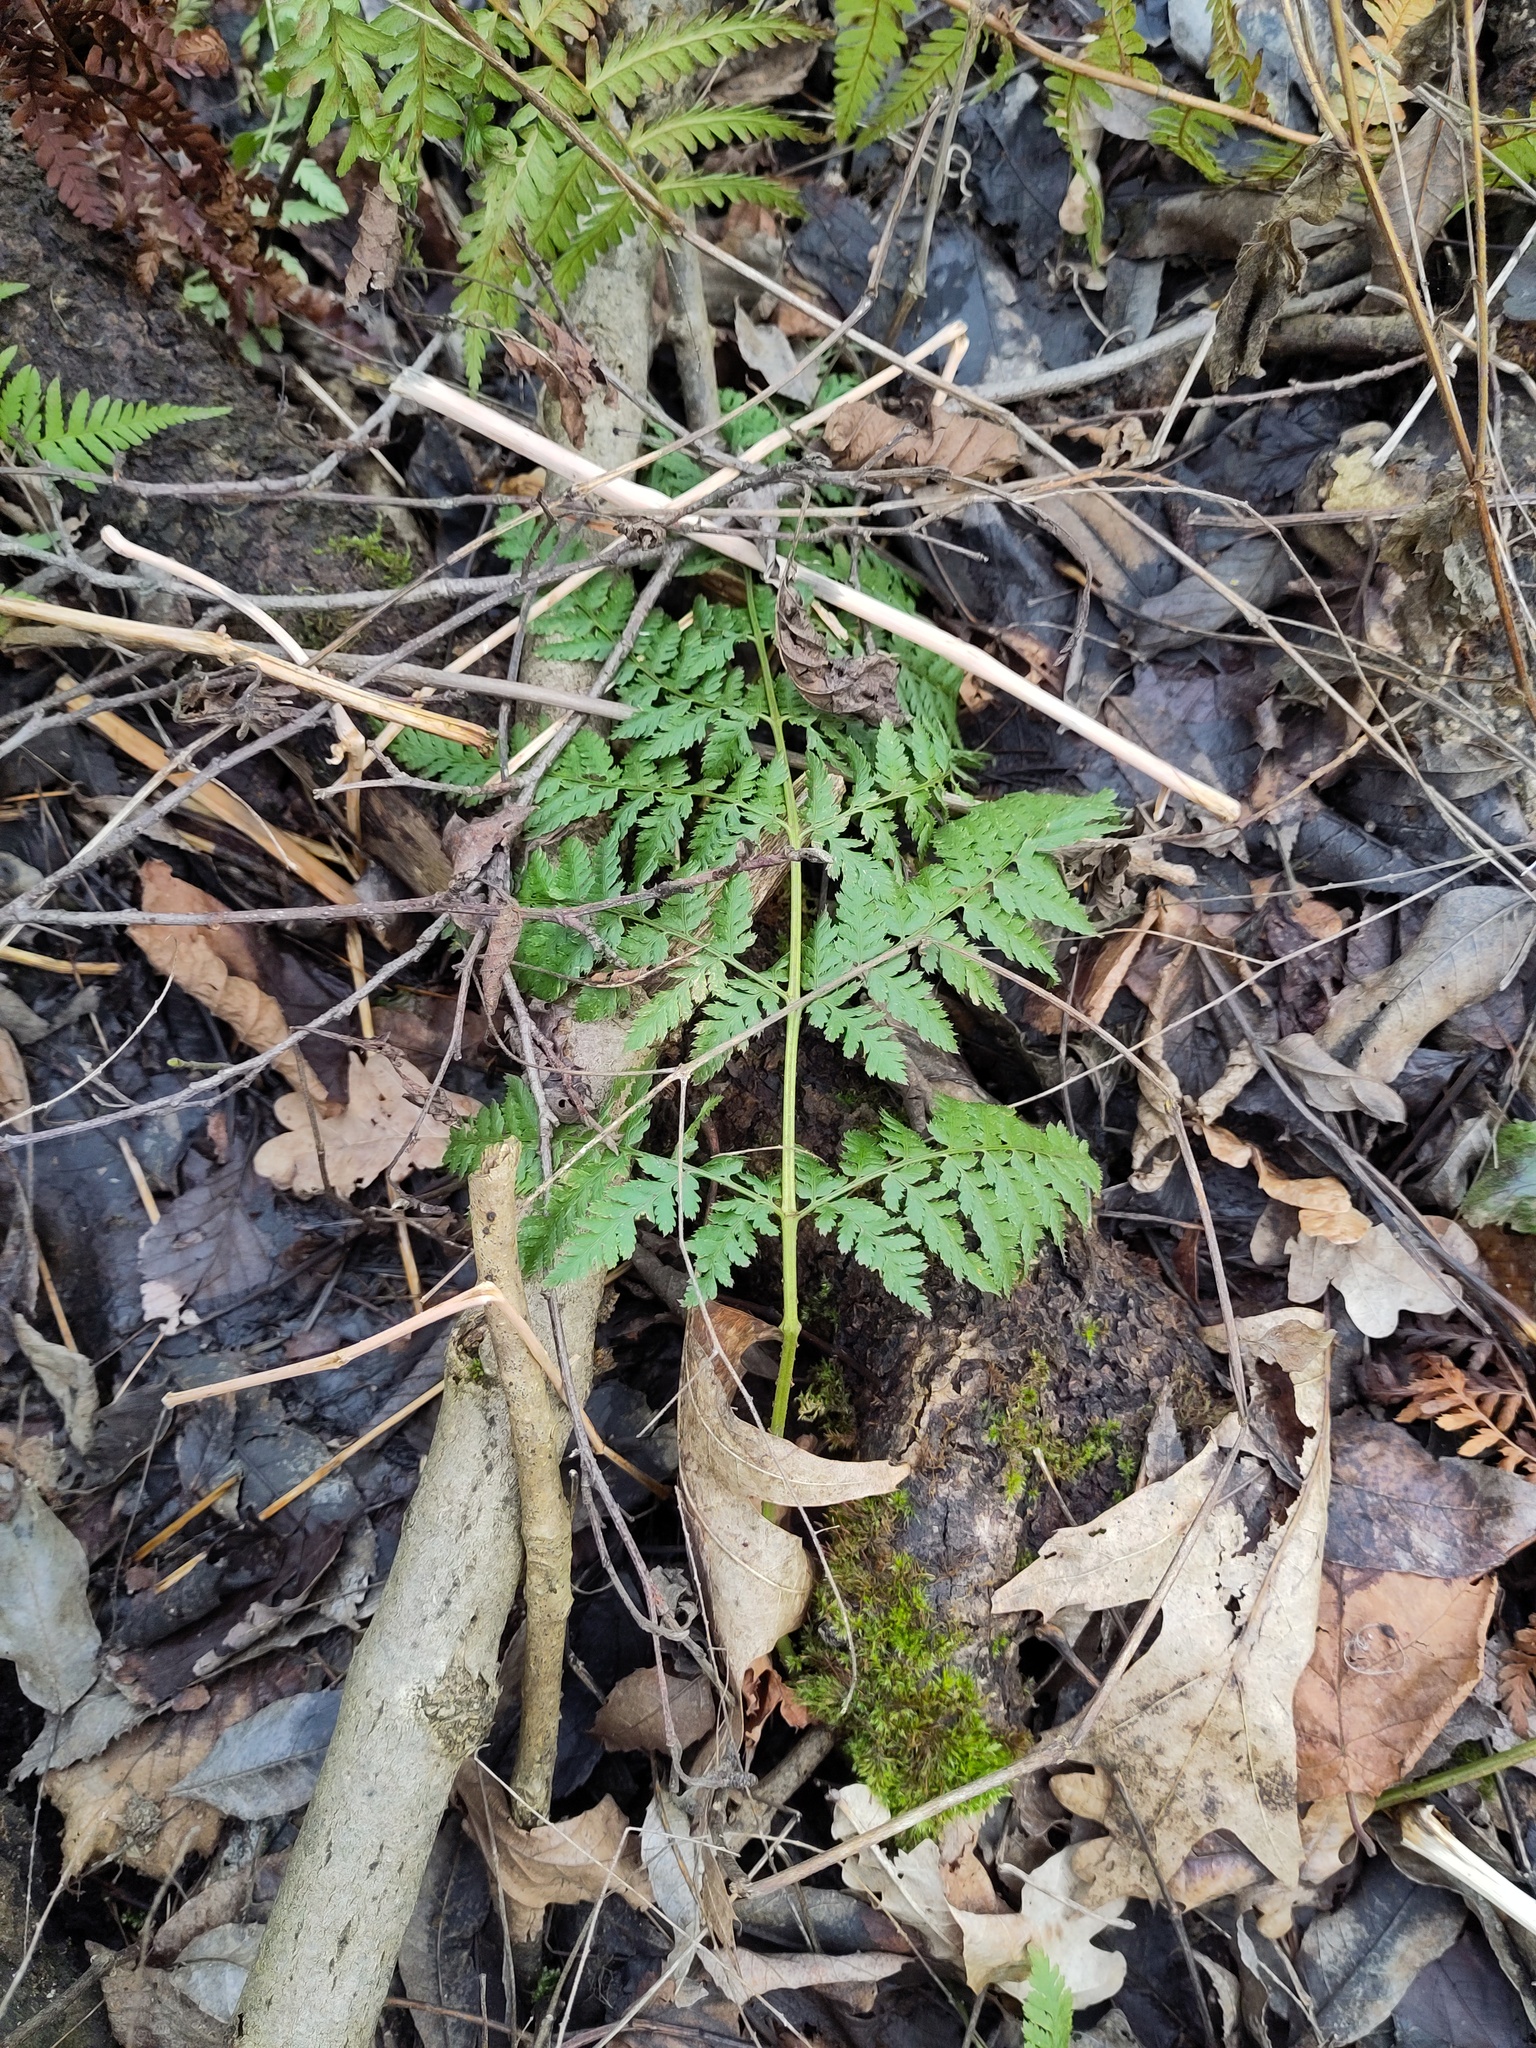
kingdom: Plantae
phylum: Tracheophyta
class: Polypodiopsida
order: Polypodiales
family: Dryopteridaceae
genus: Dryopteris
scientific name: Dryopteris carthusiana
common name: Narrow buckler-fern
